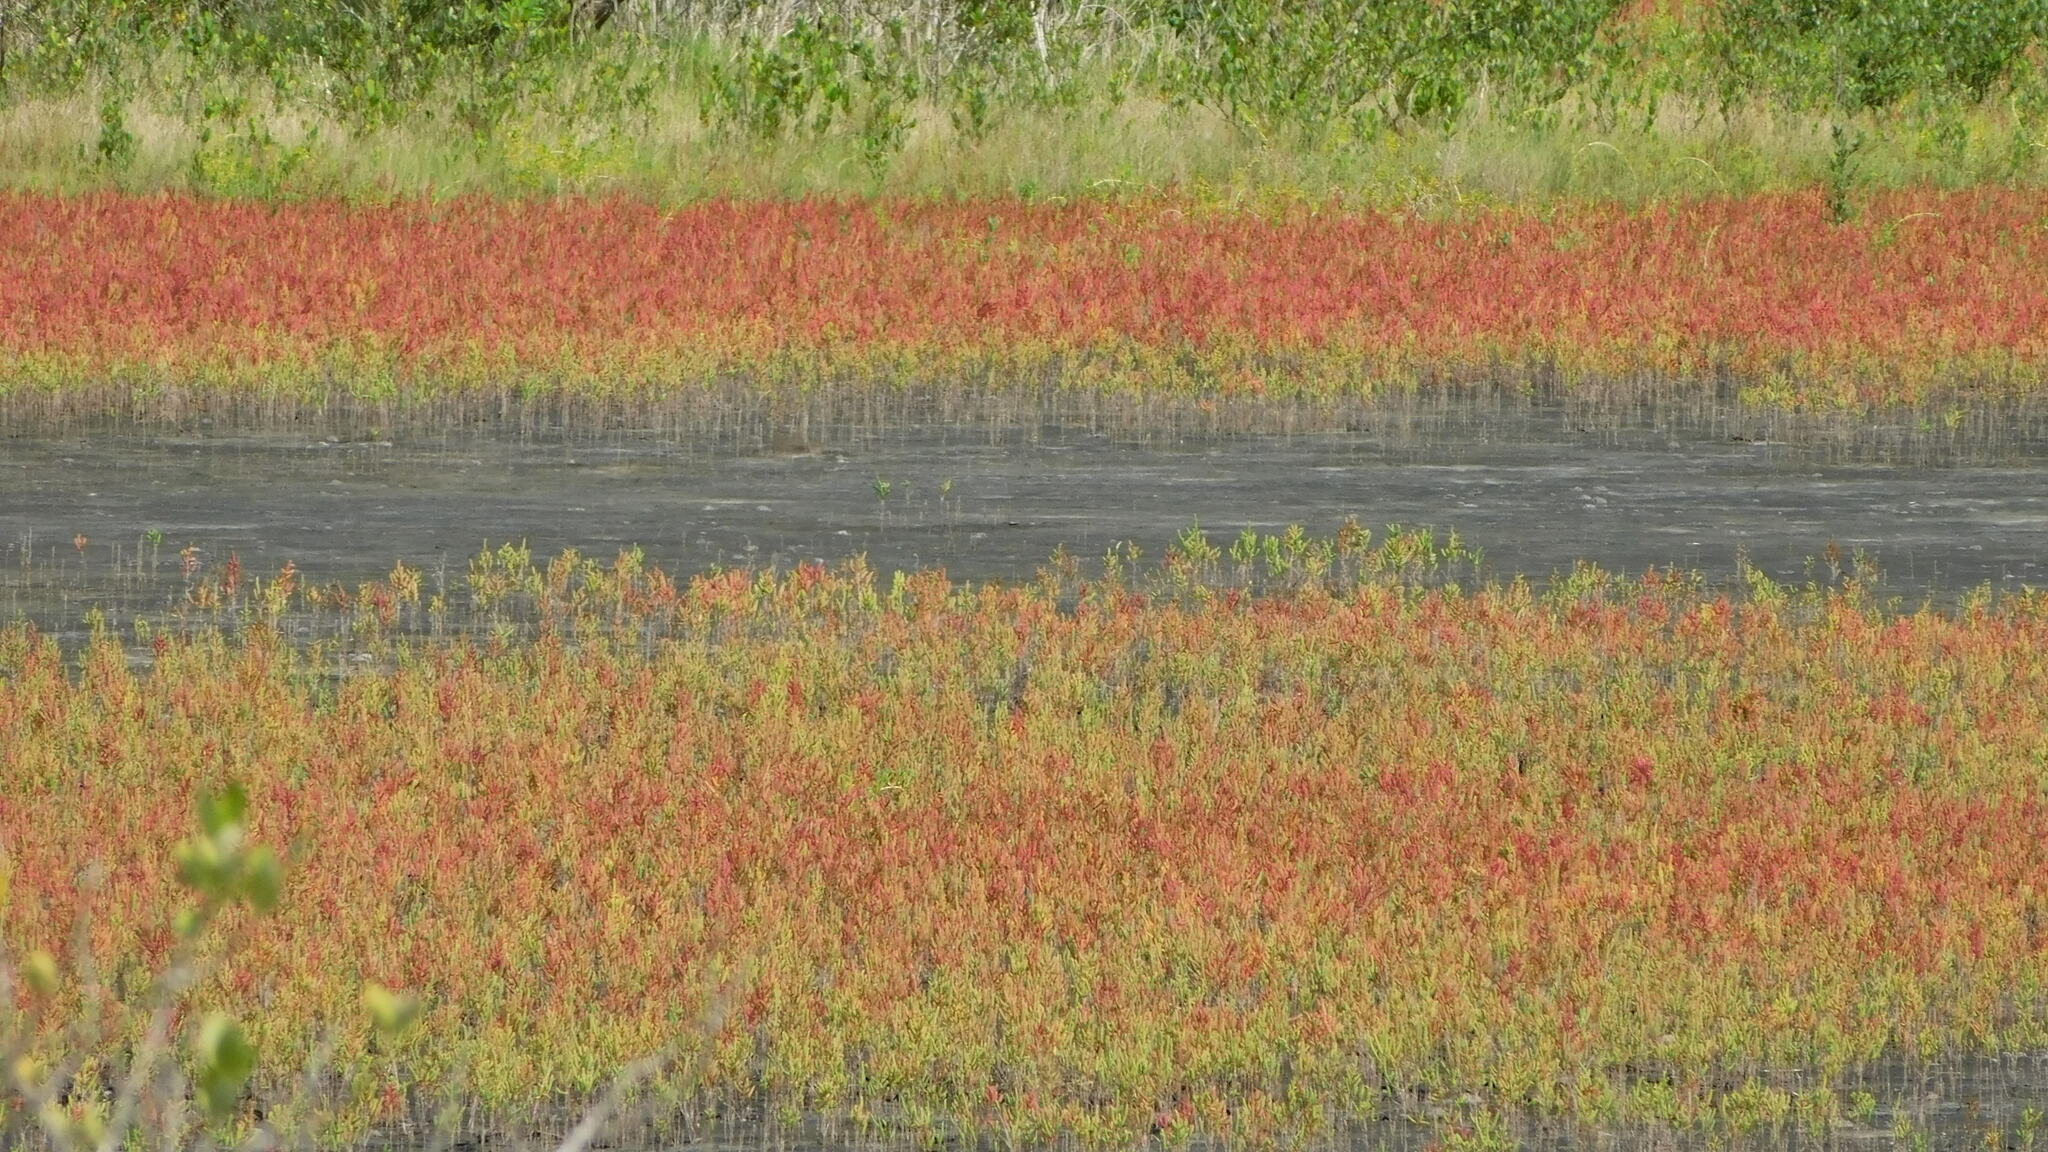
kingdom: Plantae
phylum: Tracheophyta
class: Magnoliopsida
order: Caryophyllales
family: Amaranthaceae
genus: Salicornia
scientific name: Salicornia bigelovii
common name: Dwarf glasswort
